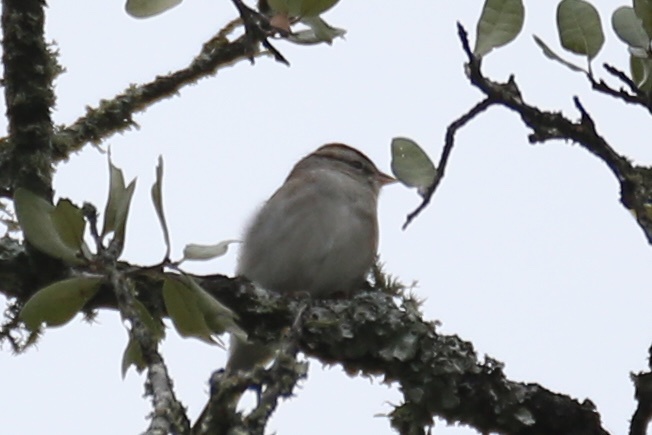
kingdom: Animalia
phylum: Chordata
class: Aves
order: Passeriformes
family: Passerellidae
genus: Spizella
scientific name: Spizella passerina
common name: Chipping sparrow
